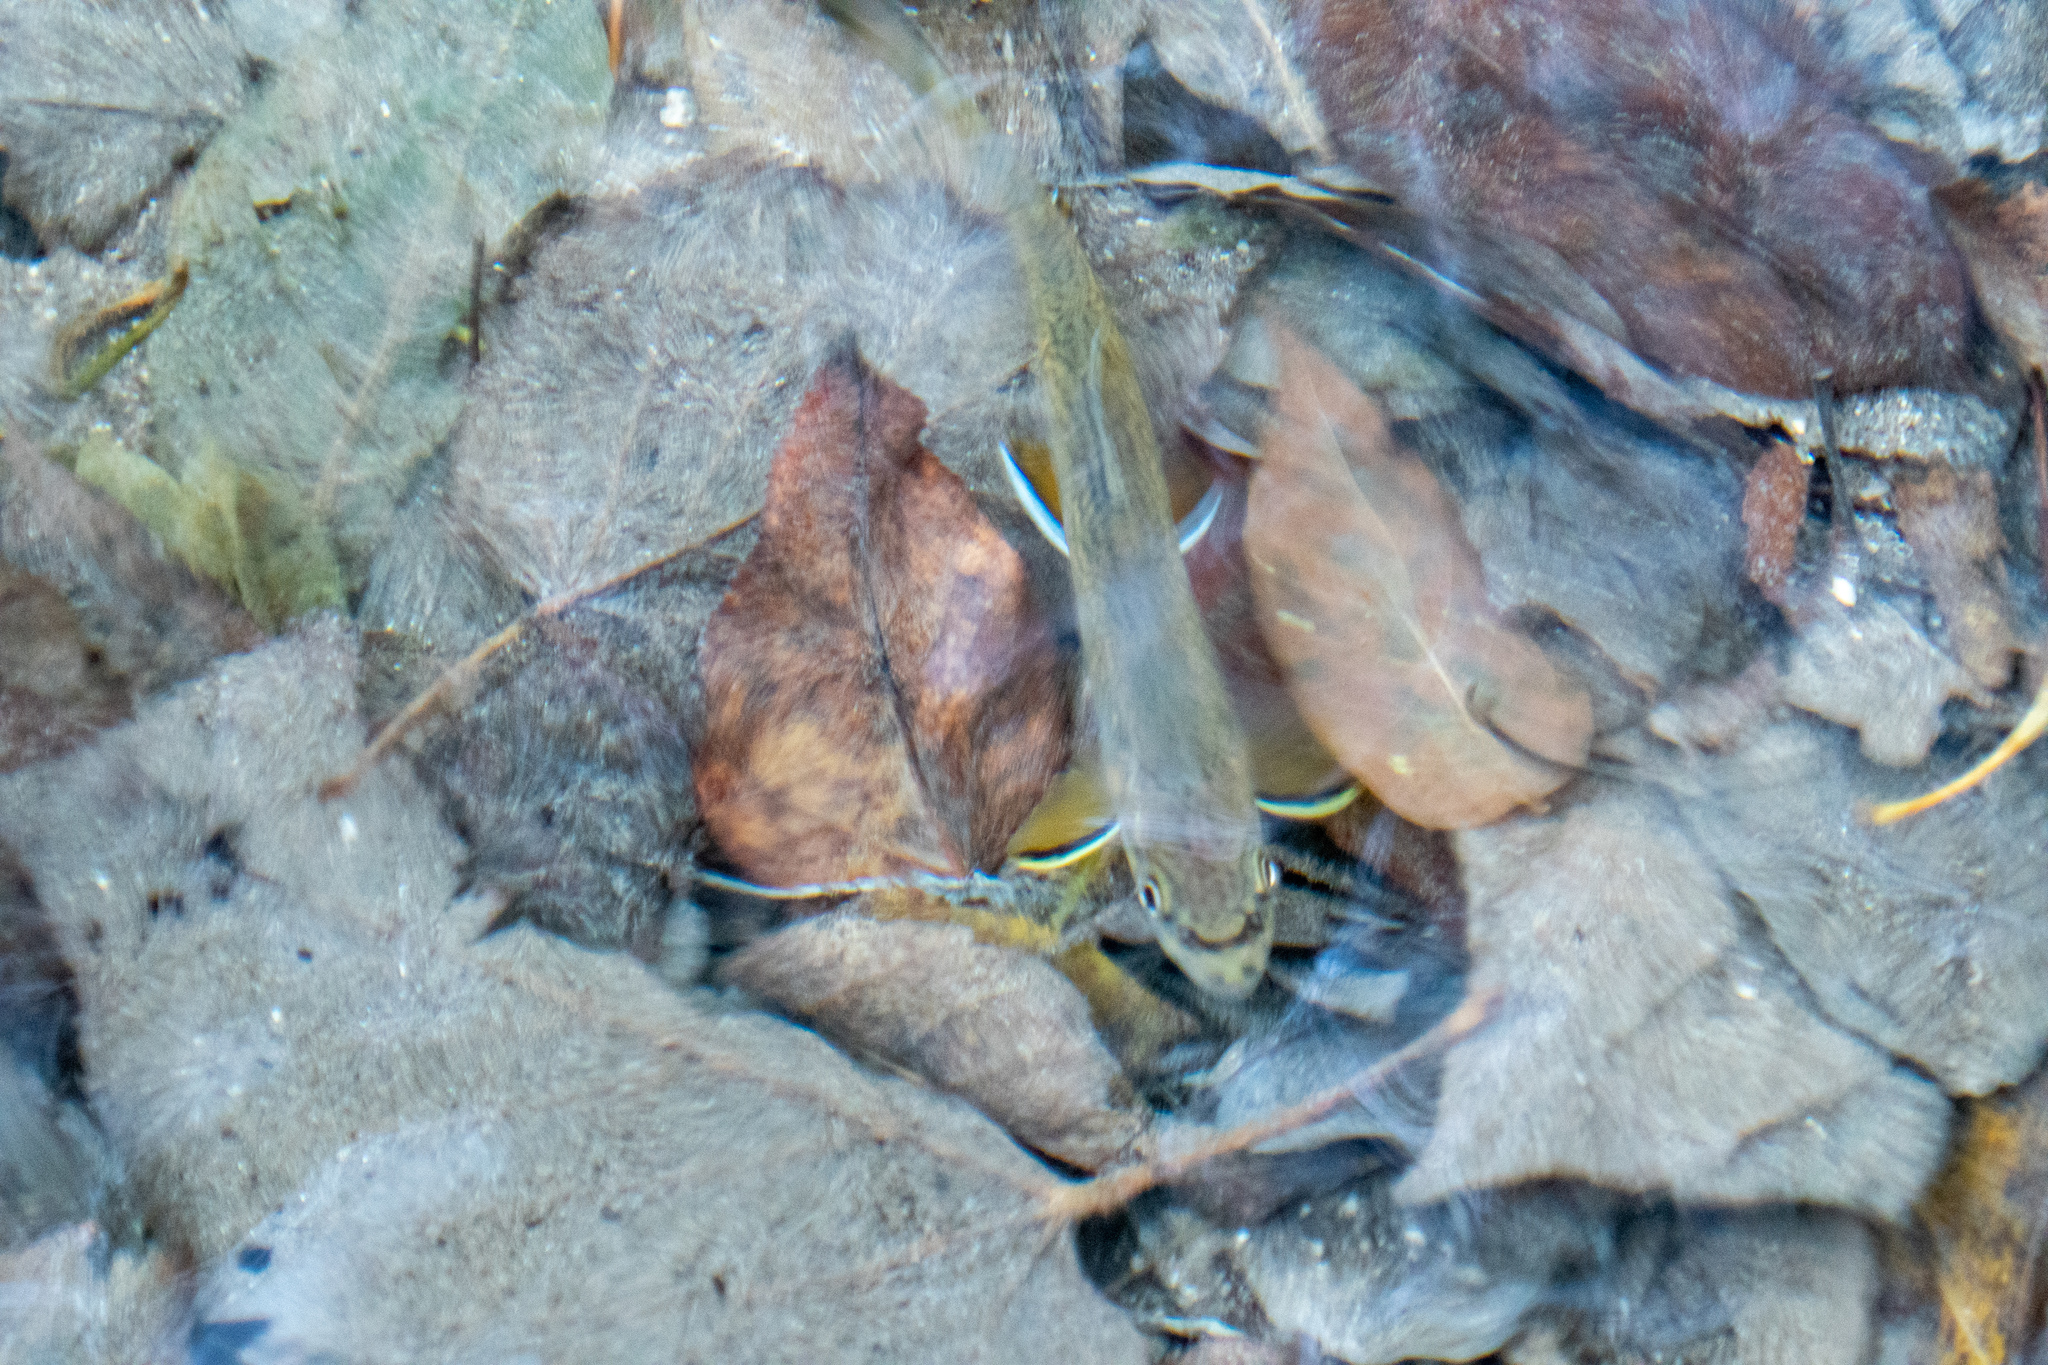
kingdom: Animalia
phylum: Chordata
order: Salmoniformes
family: Salmonidae
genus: Salvelinus
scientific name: Salvelinus fontinalis
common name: Brook trout
